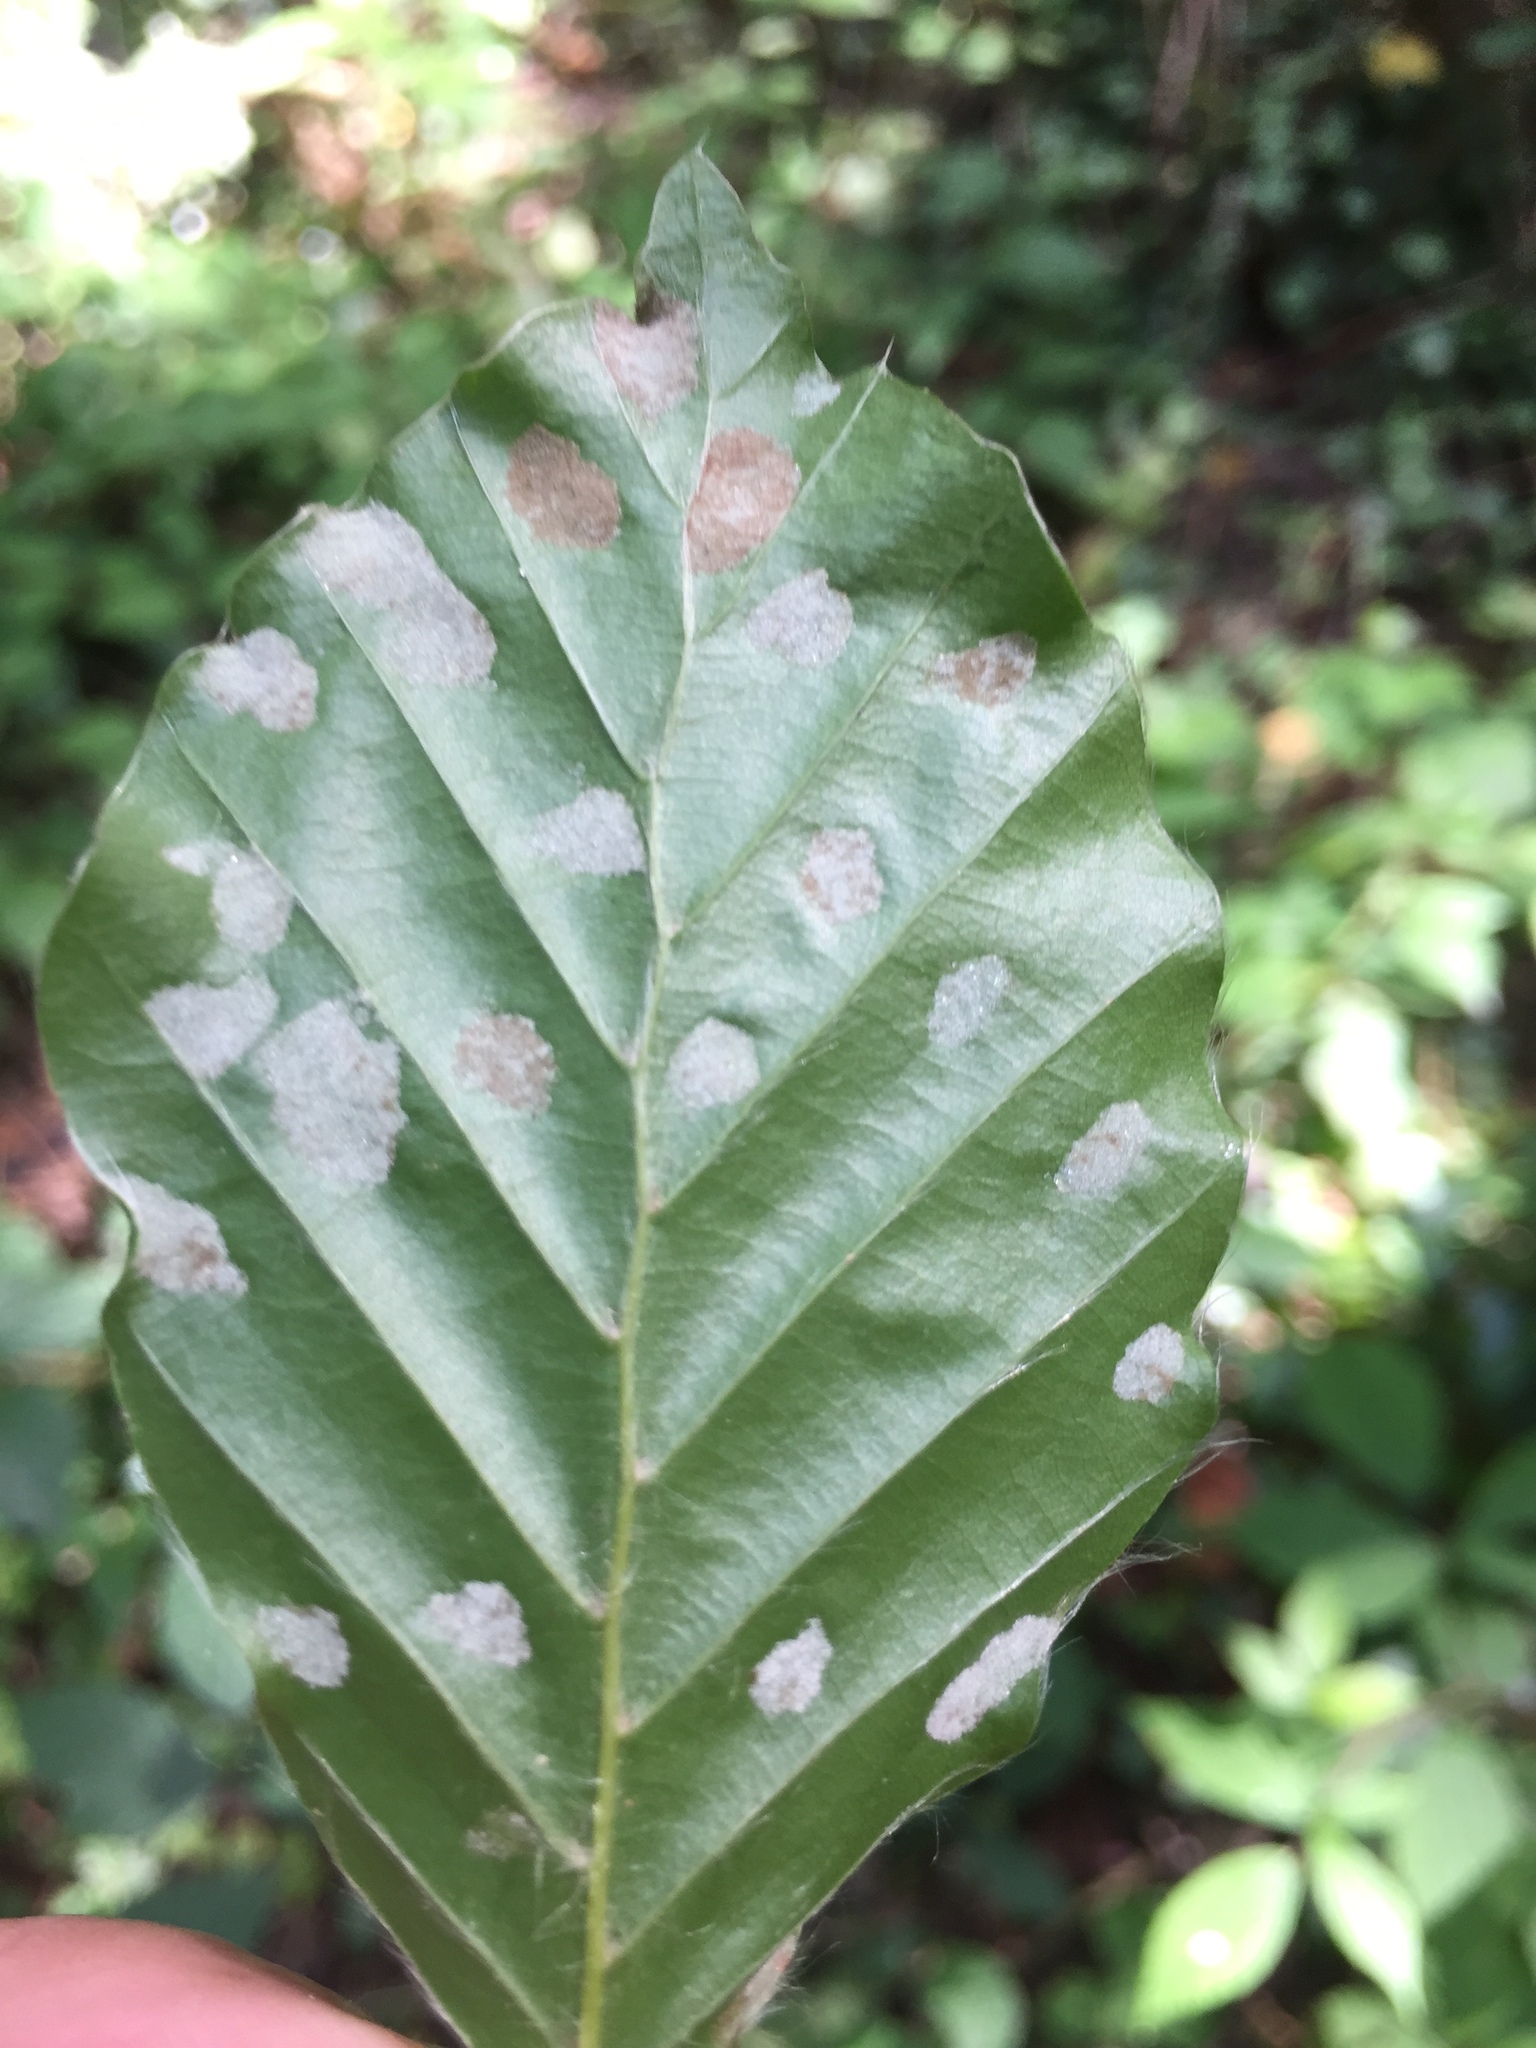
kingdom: Animalia
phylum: Arthropoda
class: Arachnida
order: Trombidiformes
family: Eriophyidae
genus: Aceria
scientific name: Aceria nervisequa
